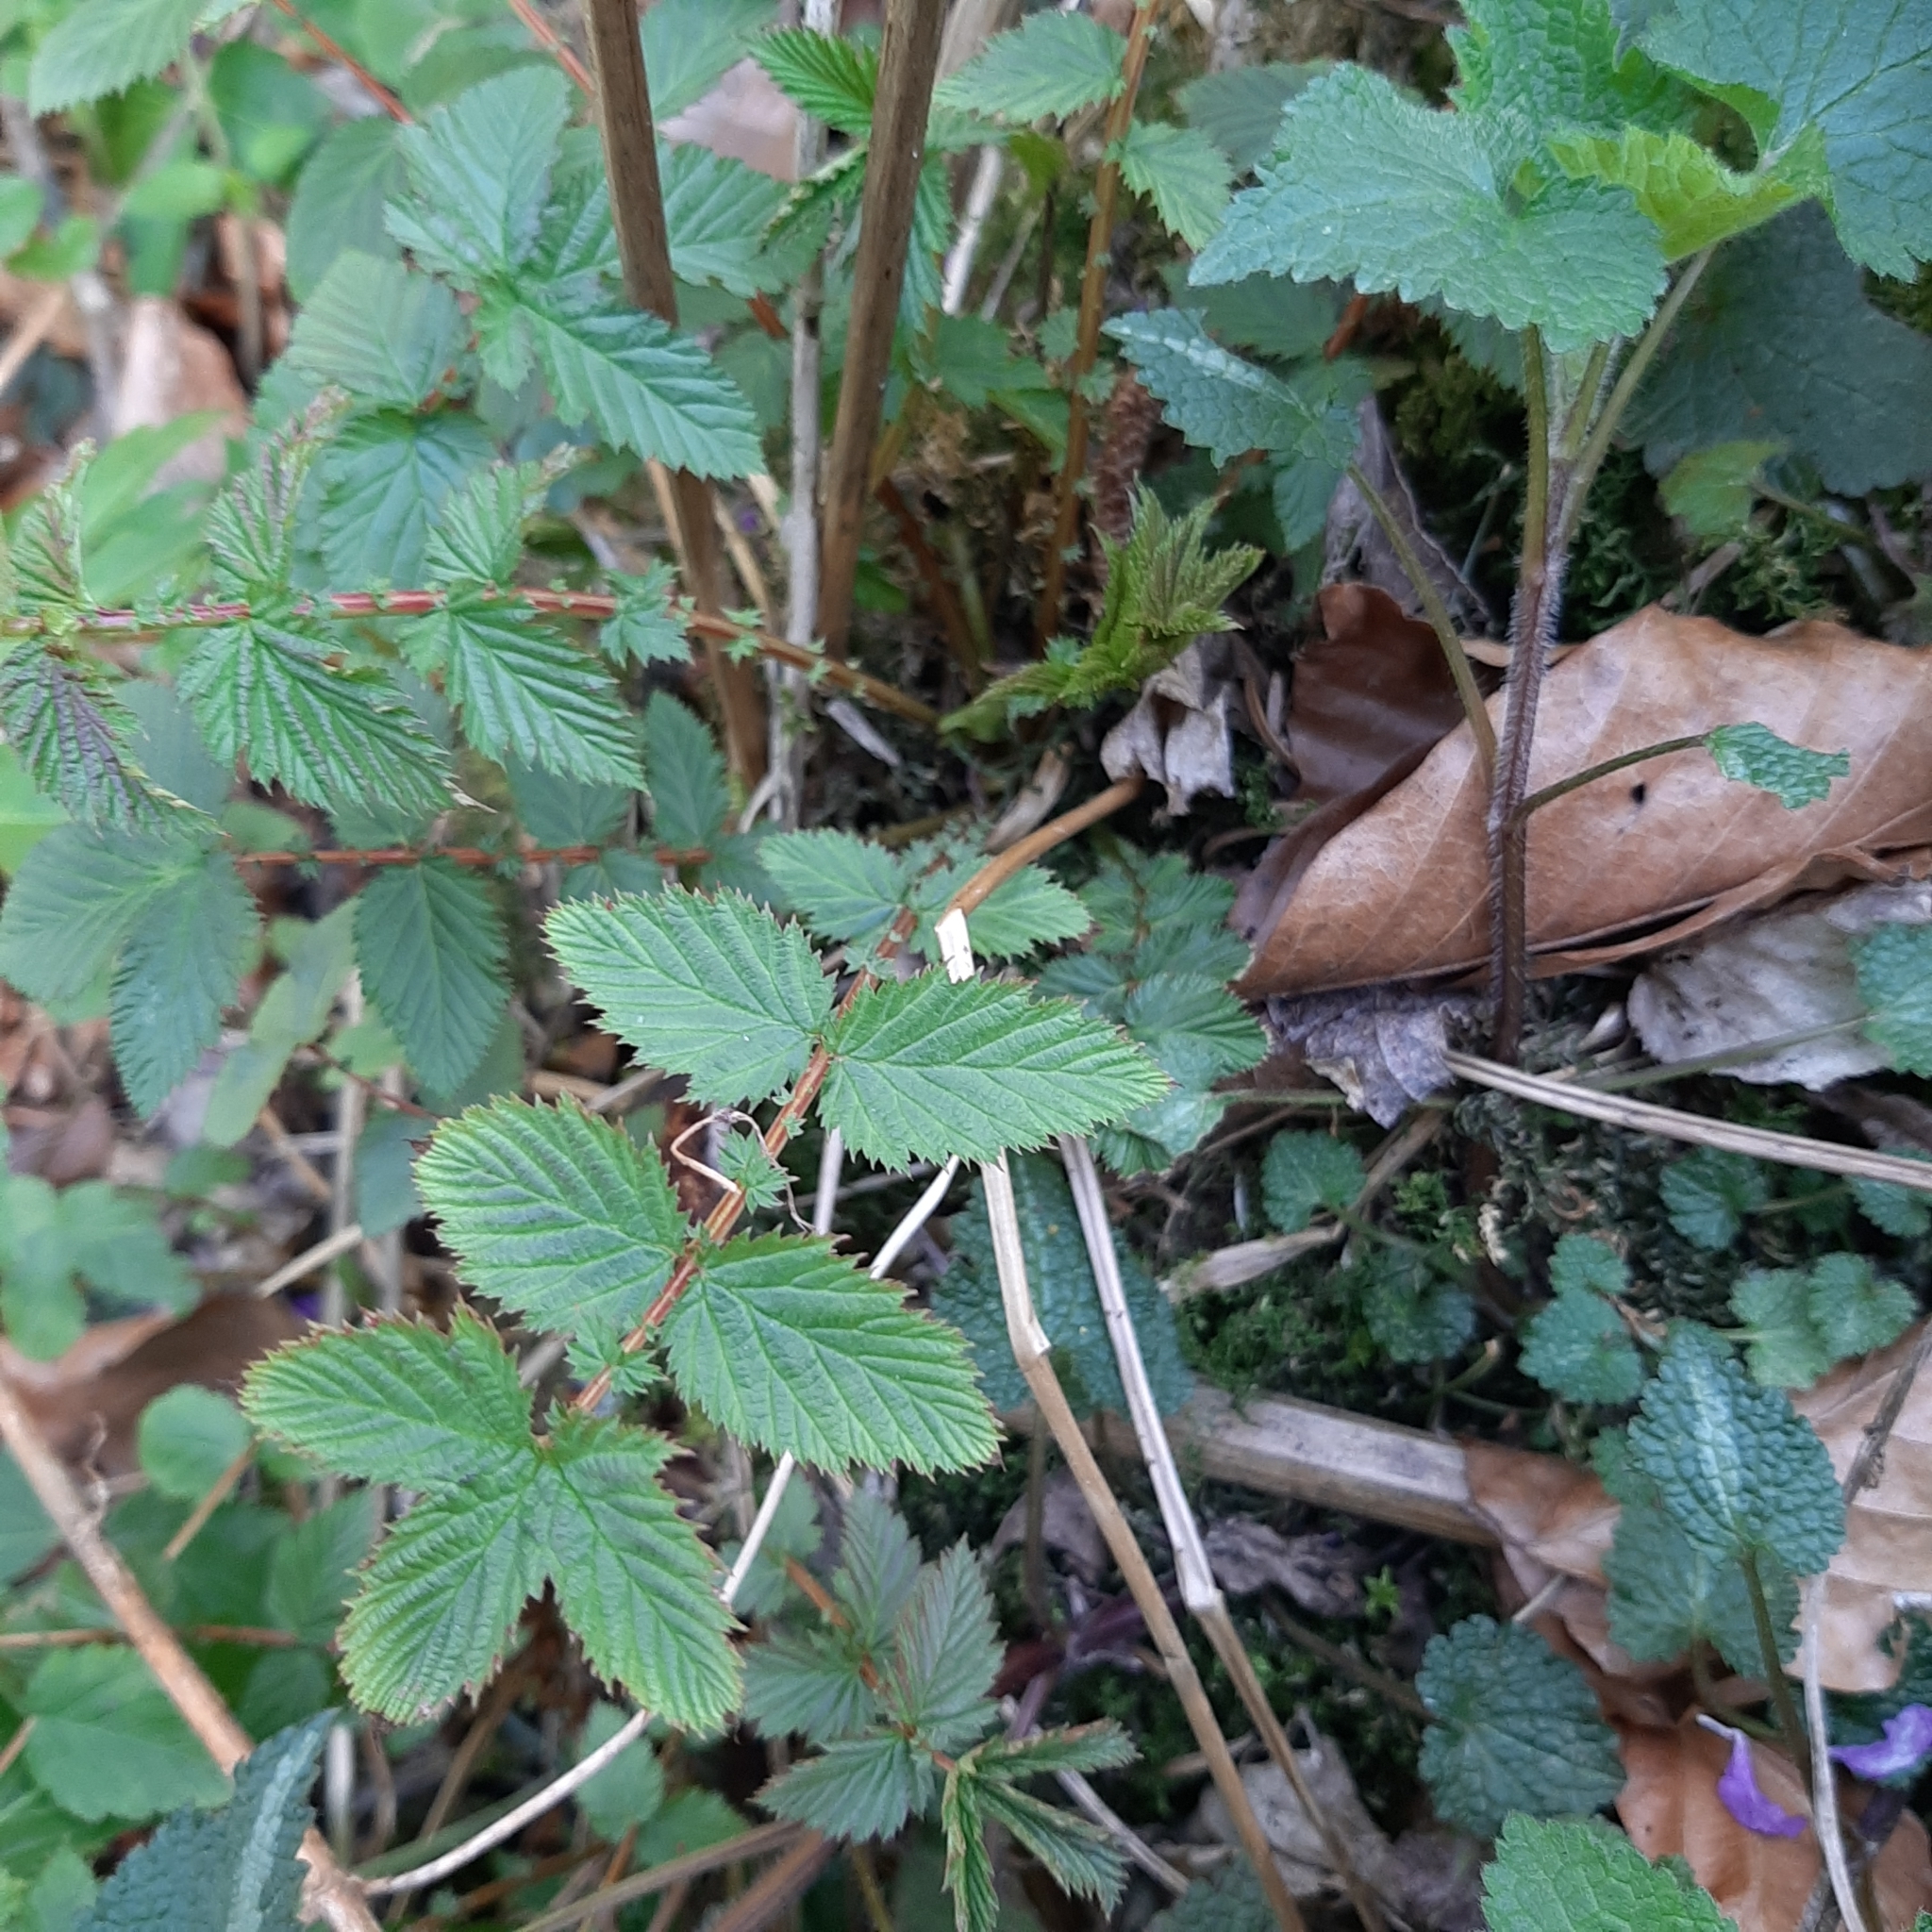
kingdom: Plantae
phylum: Tracheophyta
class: Magnoliopsida
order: Rosales
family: Rosaceae
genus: Filipendula
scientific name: Filipendula ulmaria
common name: Meadowsweet
